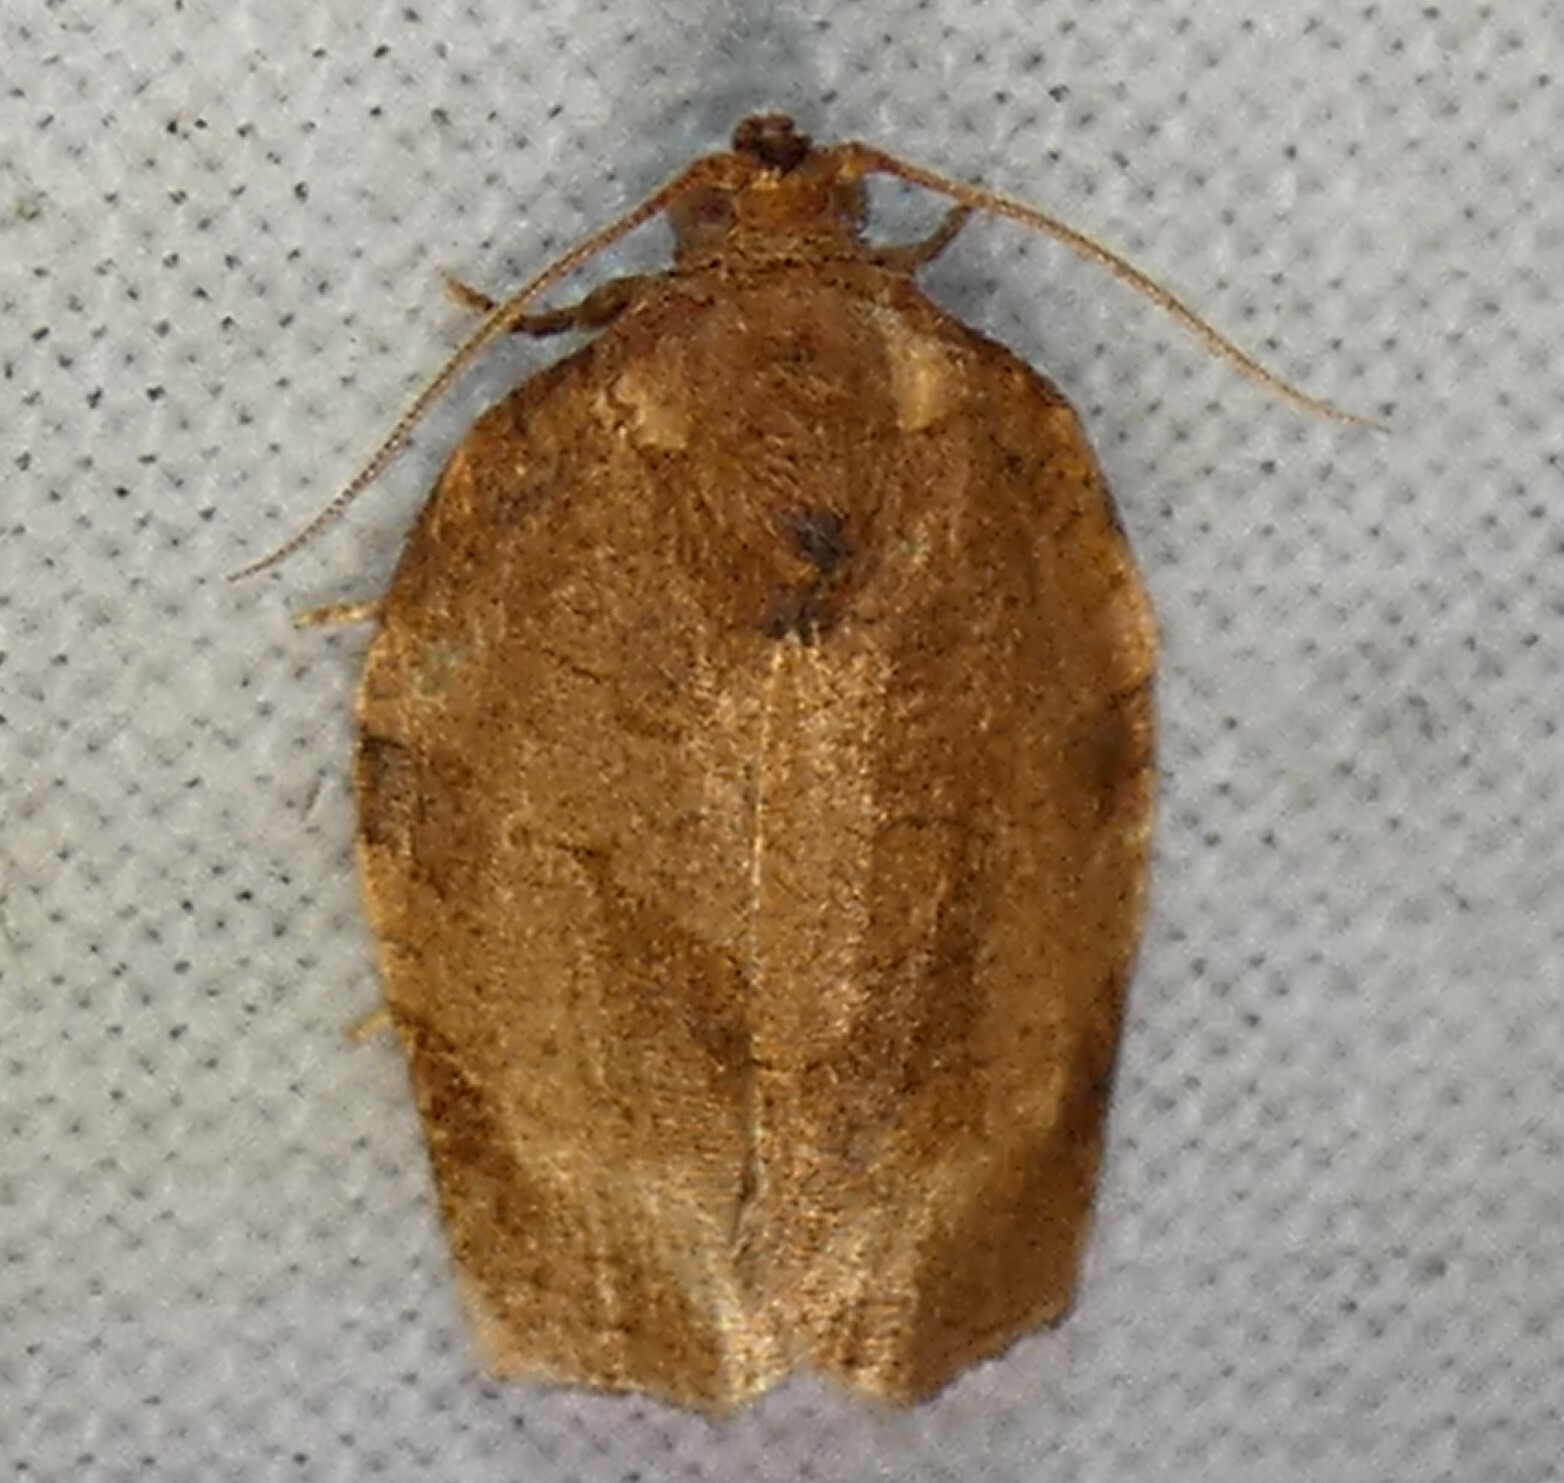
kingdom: Animalia
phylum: Arthropoda
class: Insecta
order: Lepidoptera
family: Tortricidae
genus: Choristoneura
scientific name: Choristoneura rosaceana
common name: Oblique-banded leafroller moth
